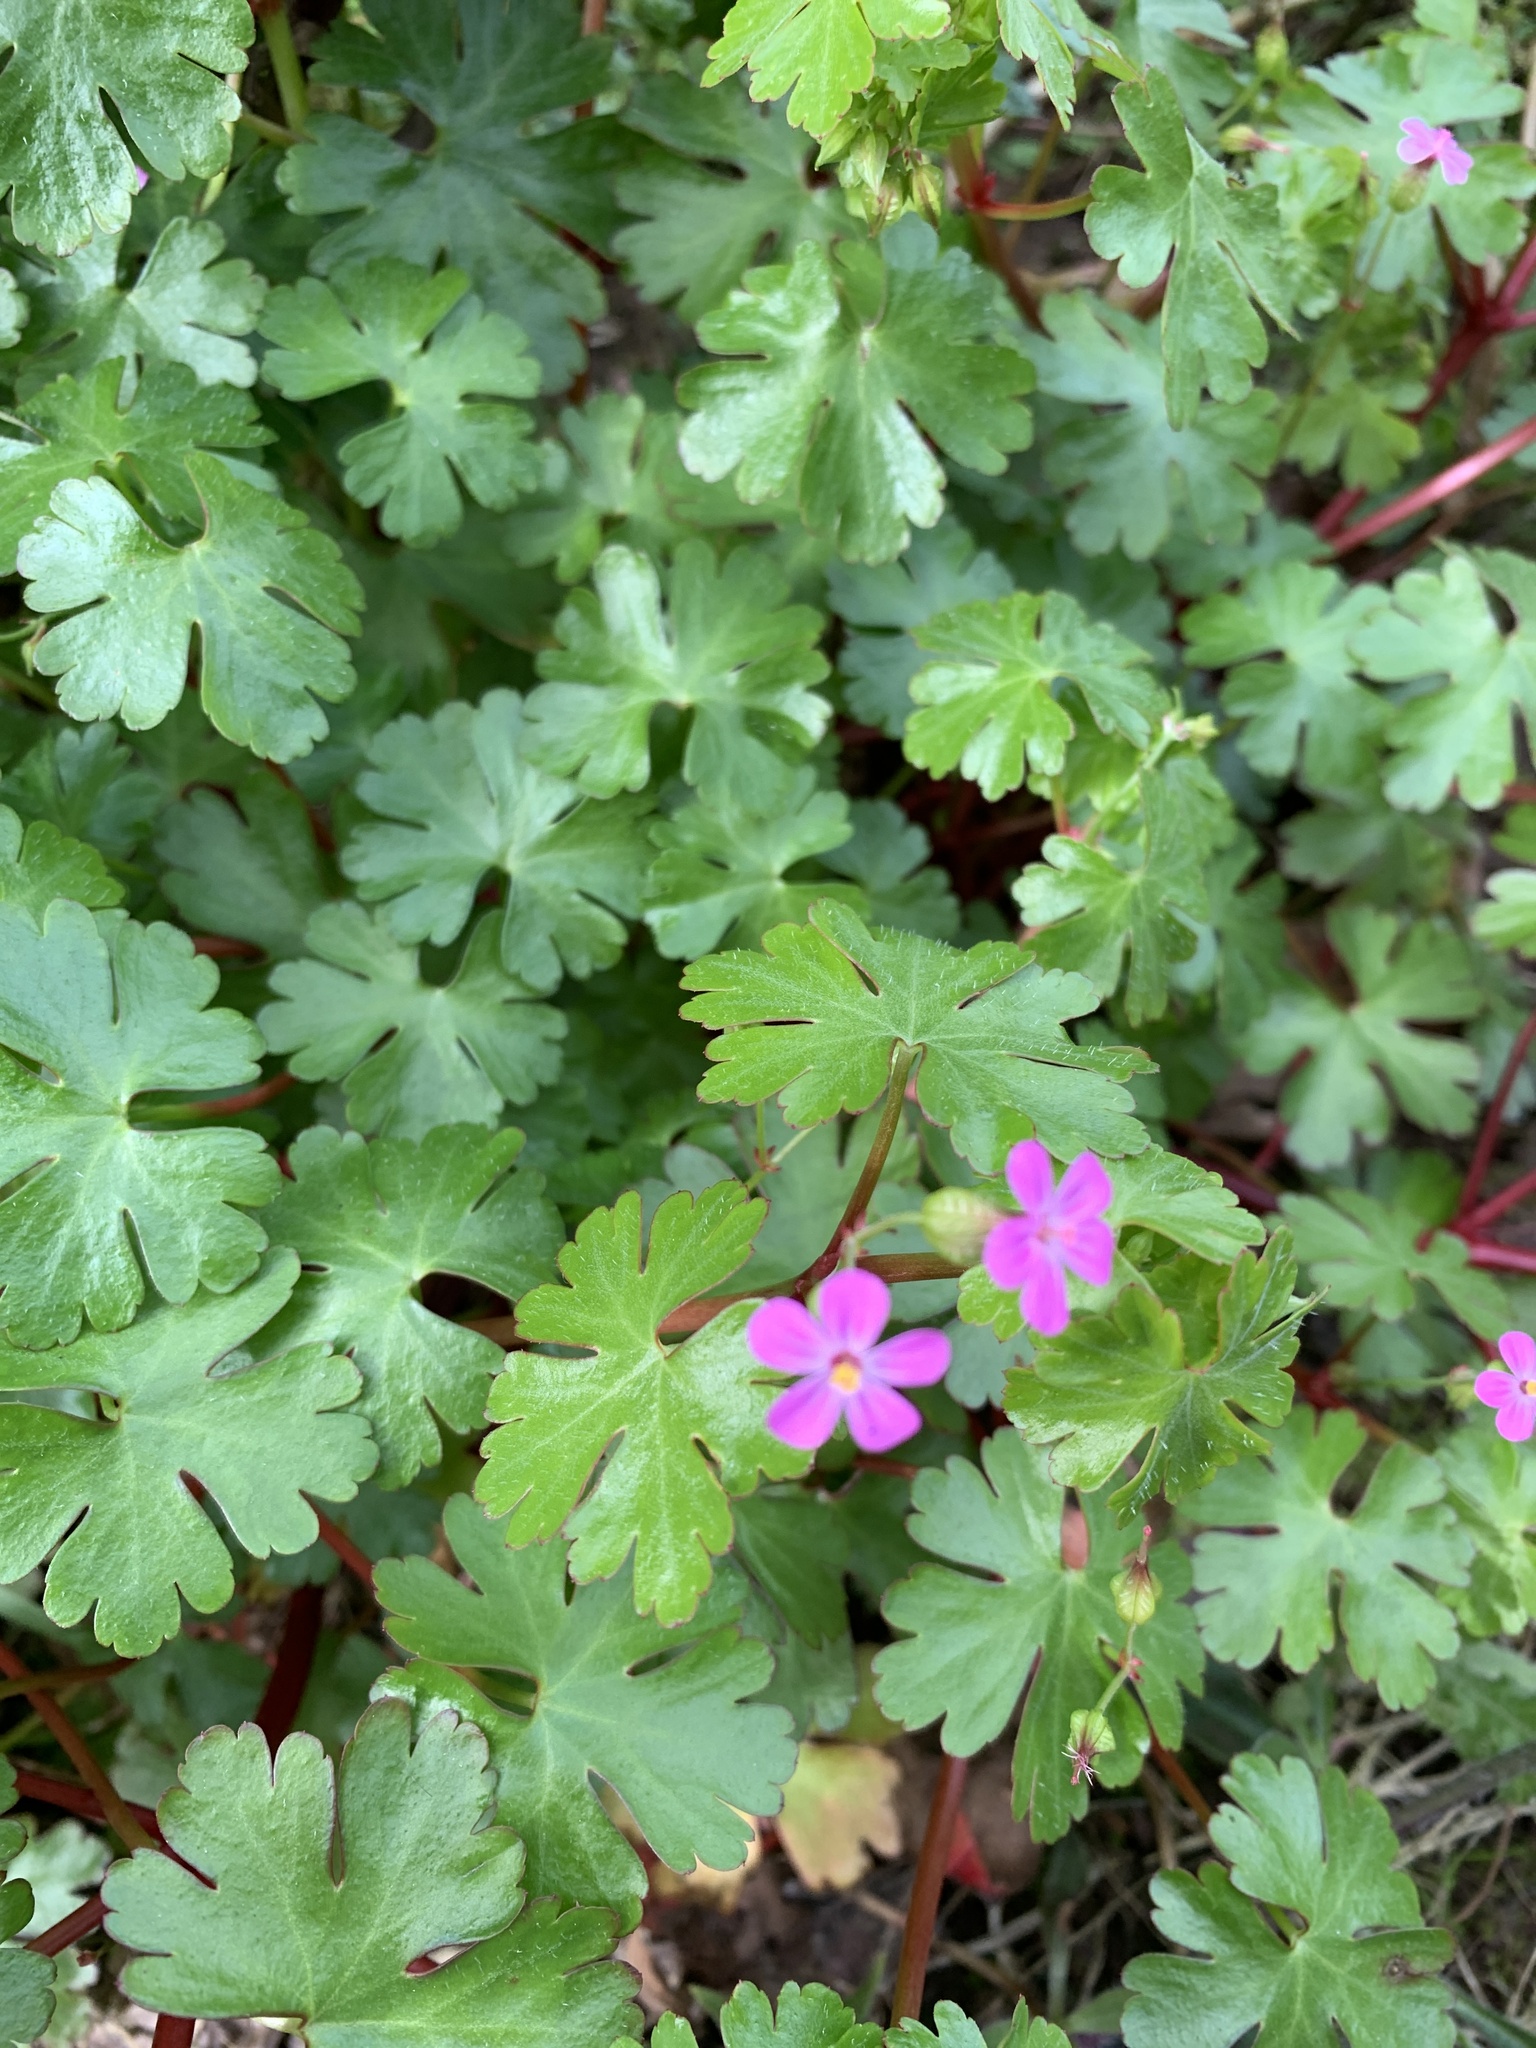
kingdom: Plantae
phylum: Tracheophyta
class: Magnoliopsida
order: Geraniales
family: Geraniaceae
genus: Geranium
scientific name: Geranium lucidum
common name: Shining crane's-bill
